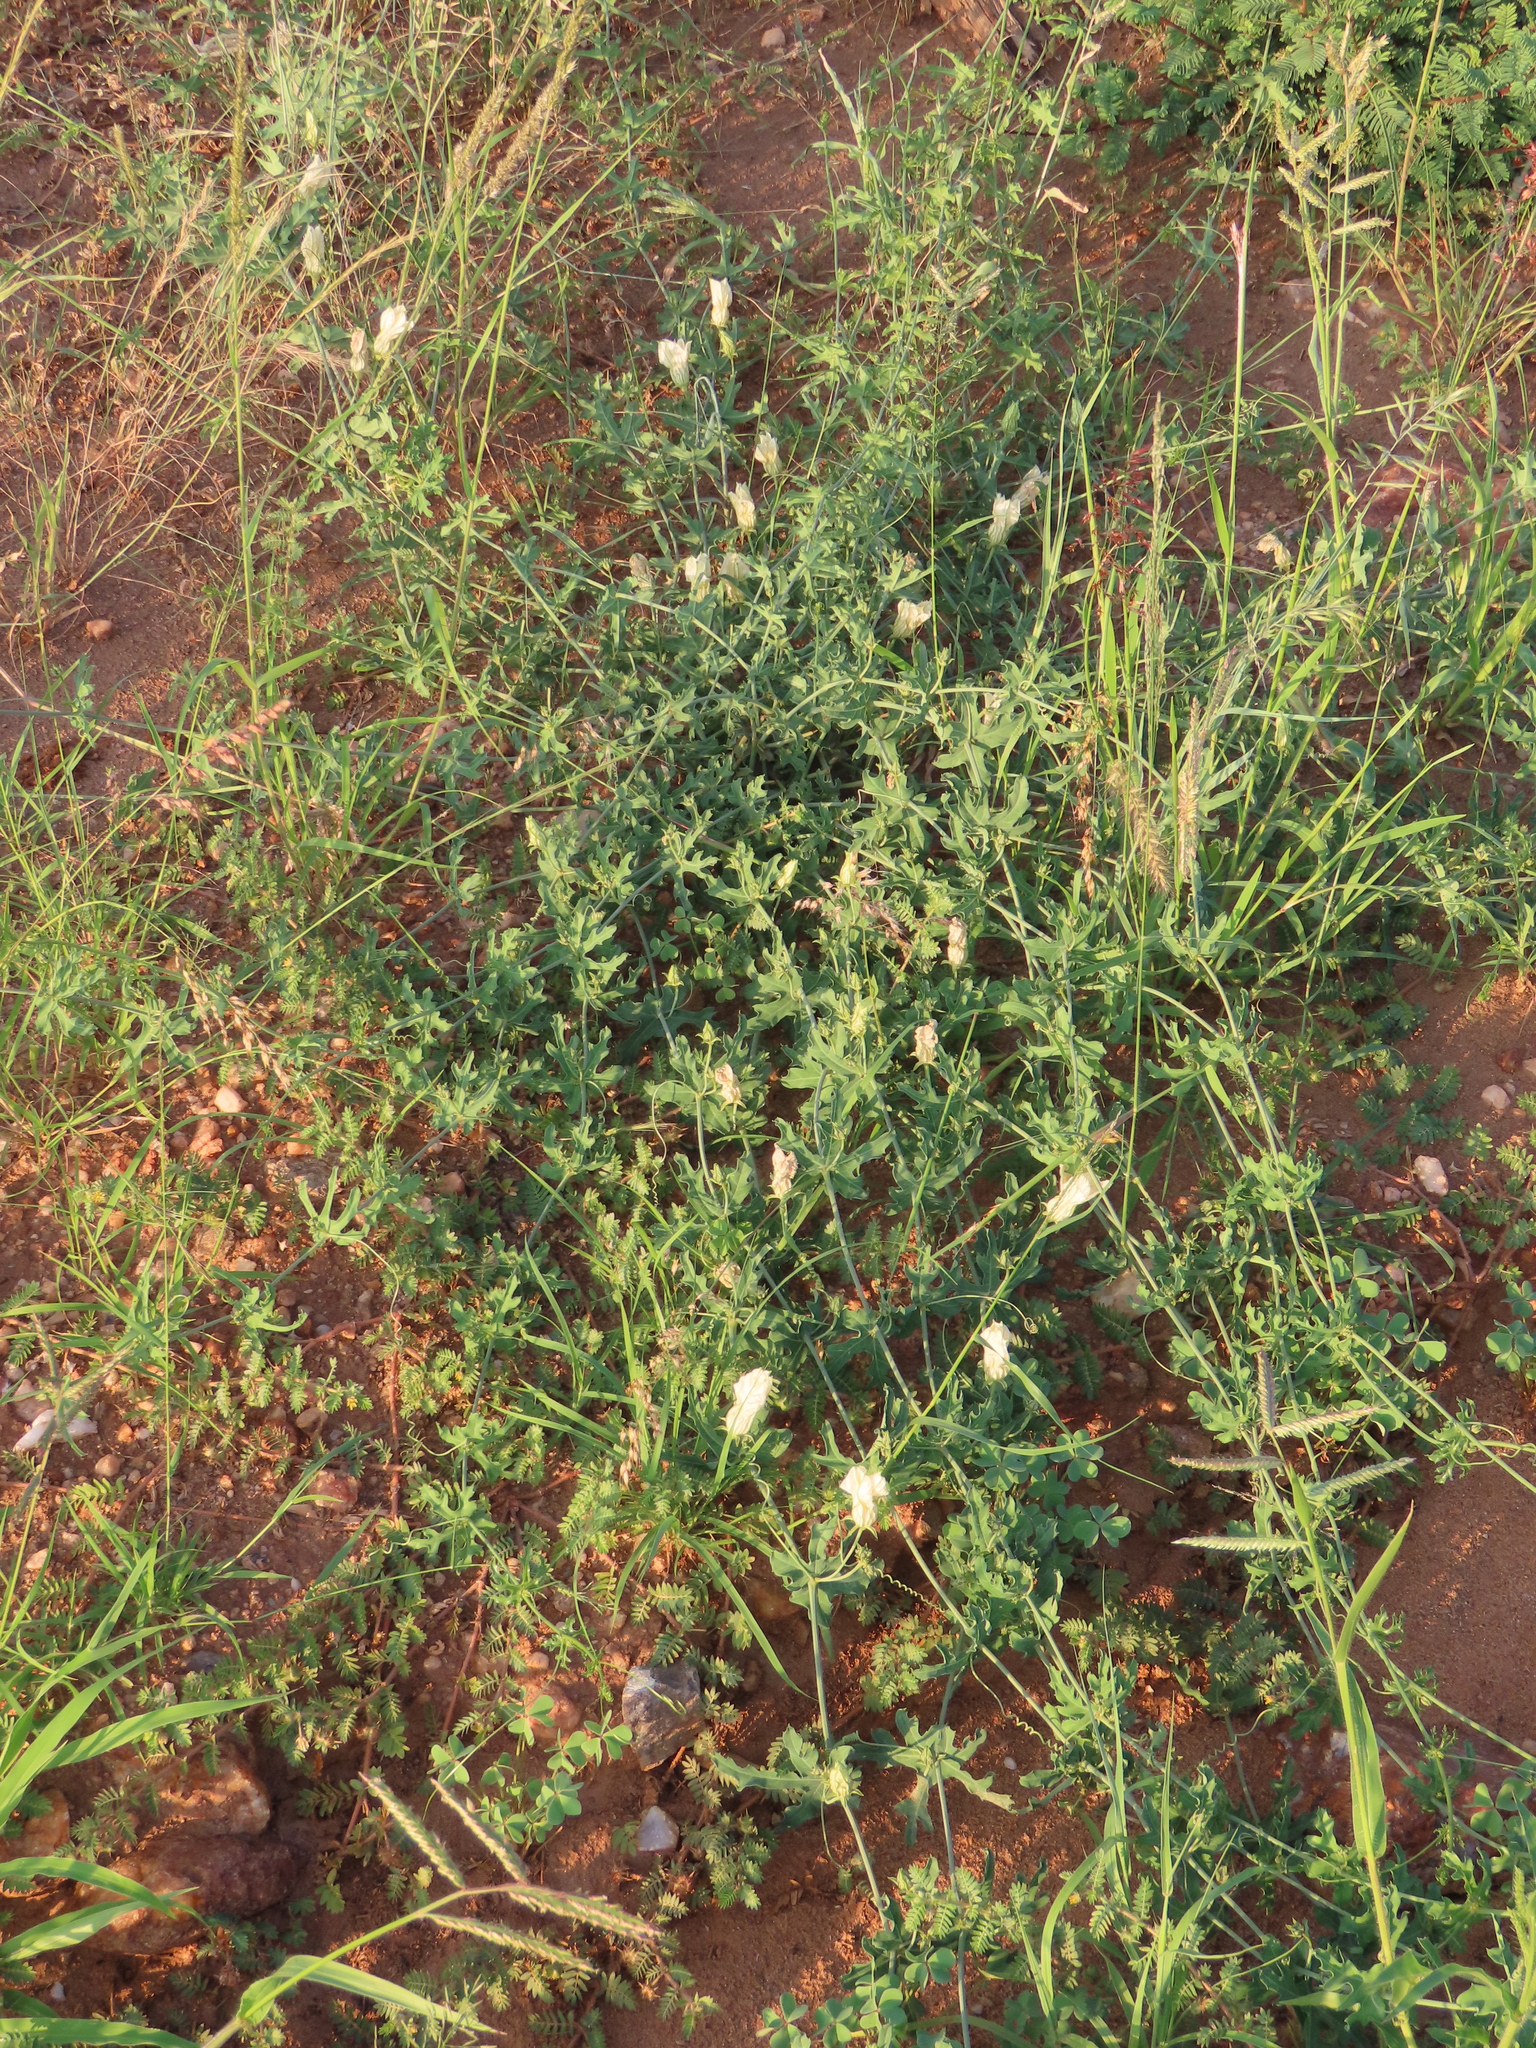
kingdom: Plantae
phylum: Tracheophyta
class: Magnoliopsida
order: Cucurbitales
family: Cucurbitaceae
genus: Coccinia
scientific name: Coccinia sessilifolia
